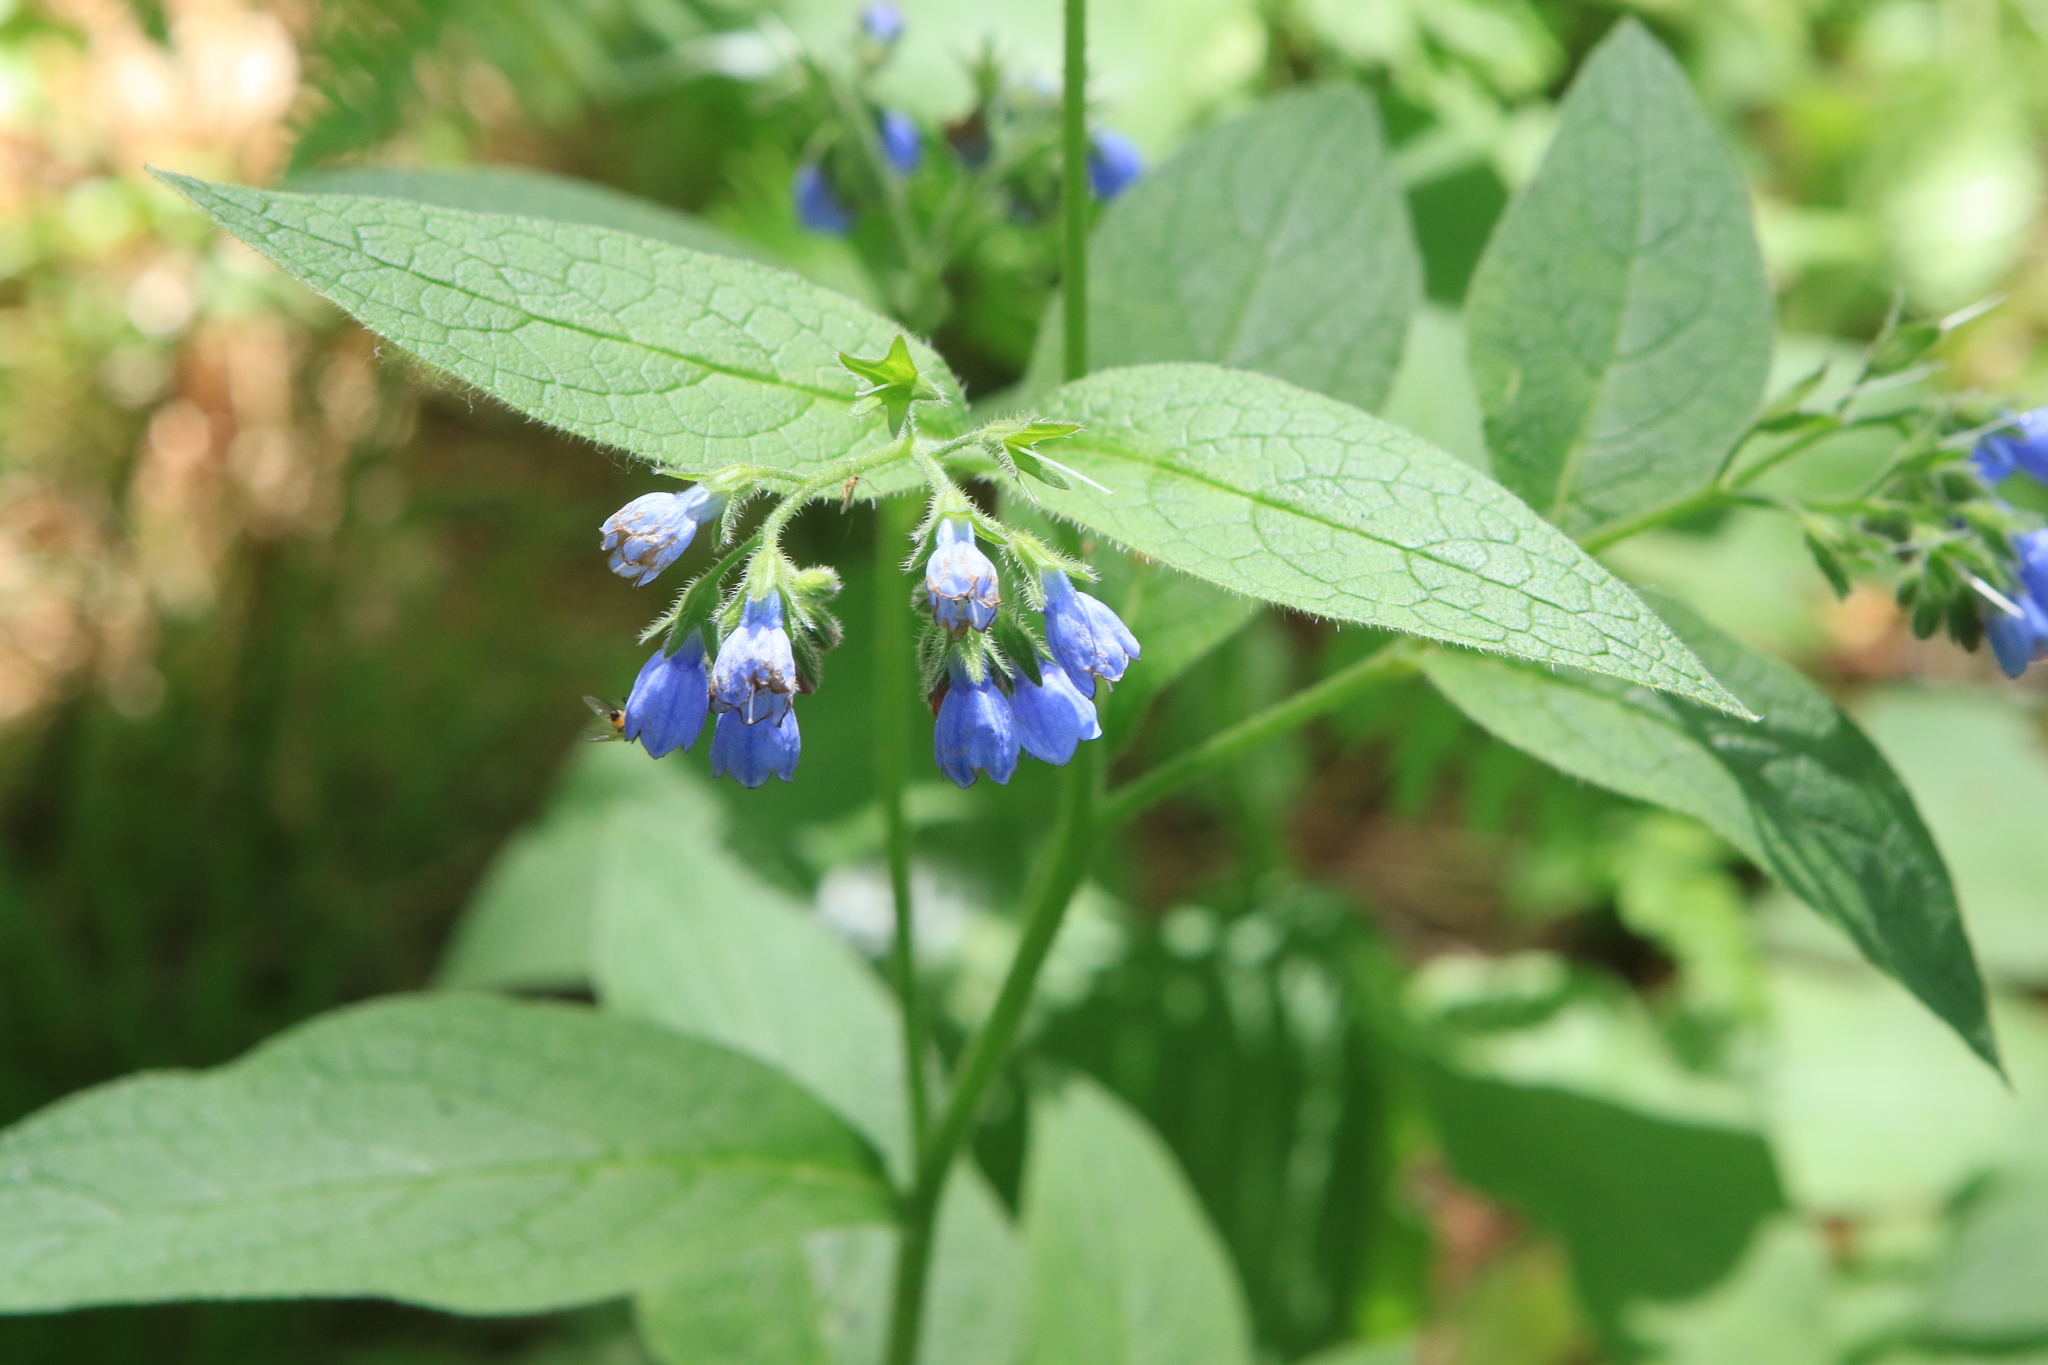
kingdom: Plantae
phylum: Tracheophyta
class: Magnoliopsida
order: Boraginales
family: Boraginaceae
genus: Symphytum
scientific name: Symphytum caucasicum
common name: Caucasian comfrey
